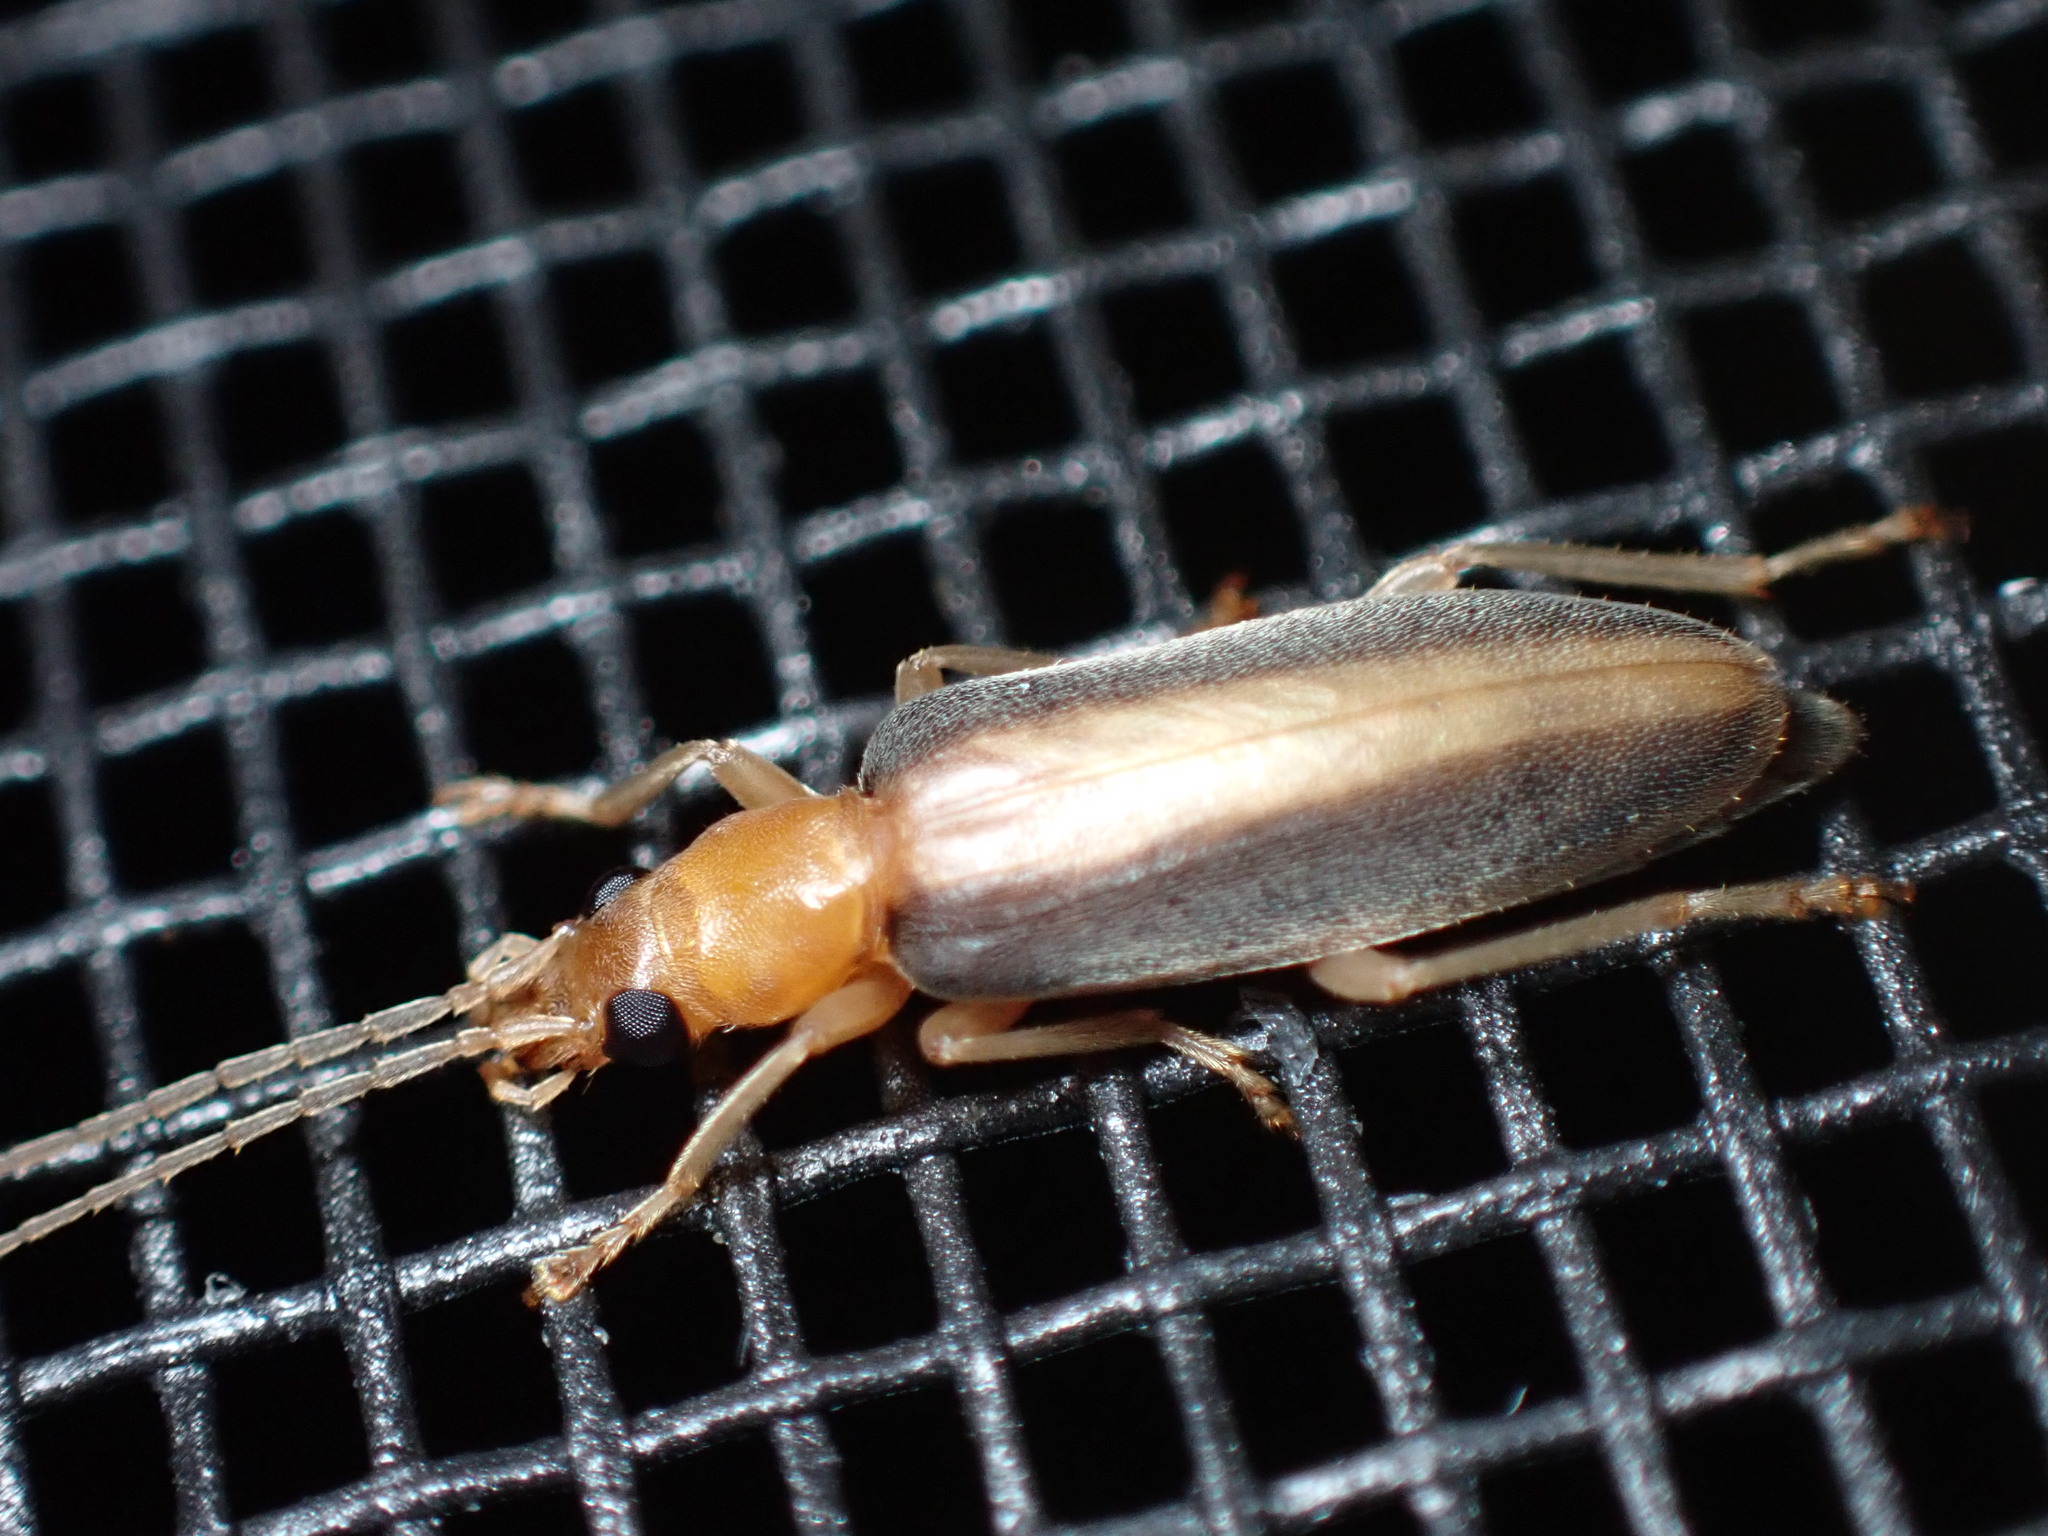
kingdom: Animalia
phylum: Arthropoda
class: Insecta
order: Coleoptera
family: Oedemeridae
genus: Oxycopis
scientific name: Oxycopis vittata
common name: False blister beetle
